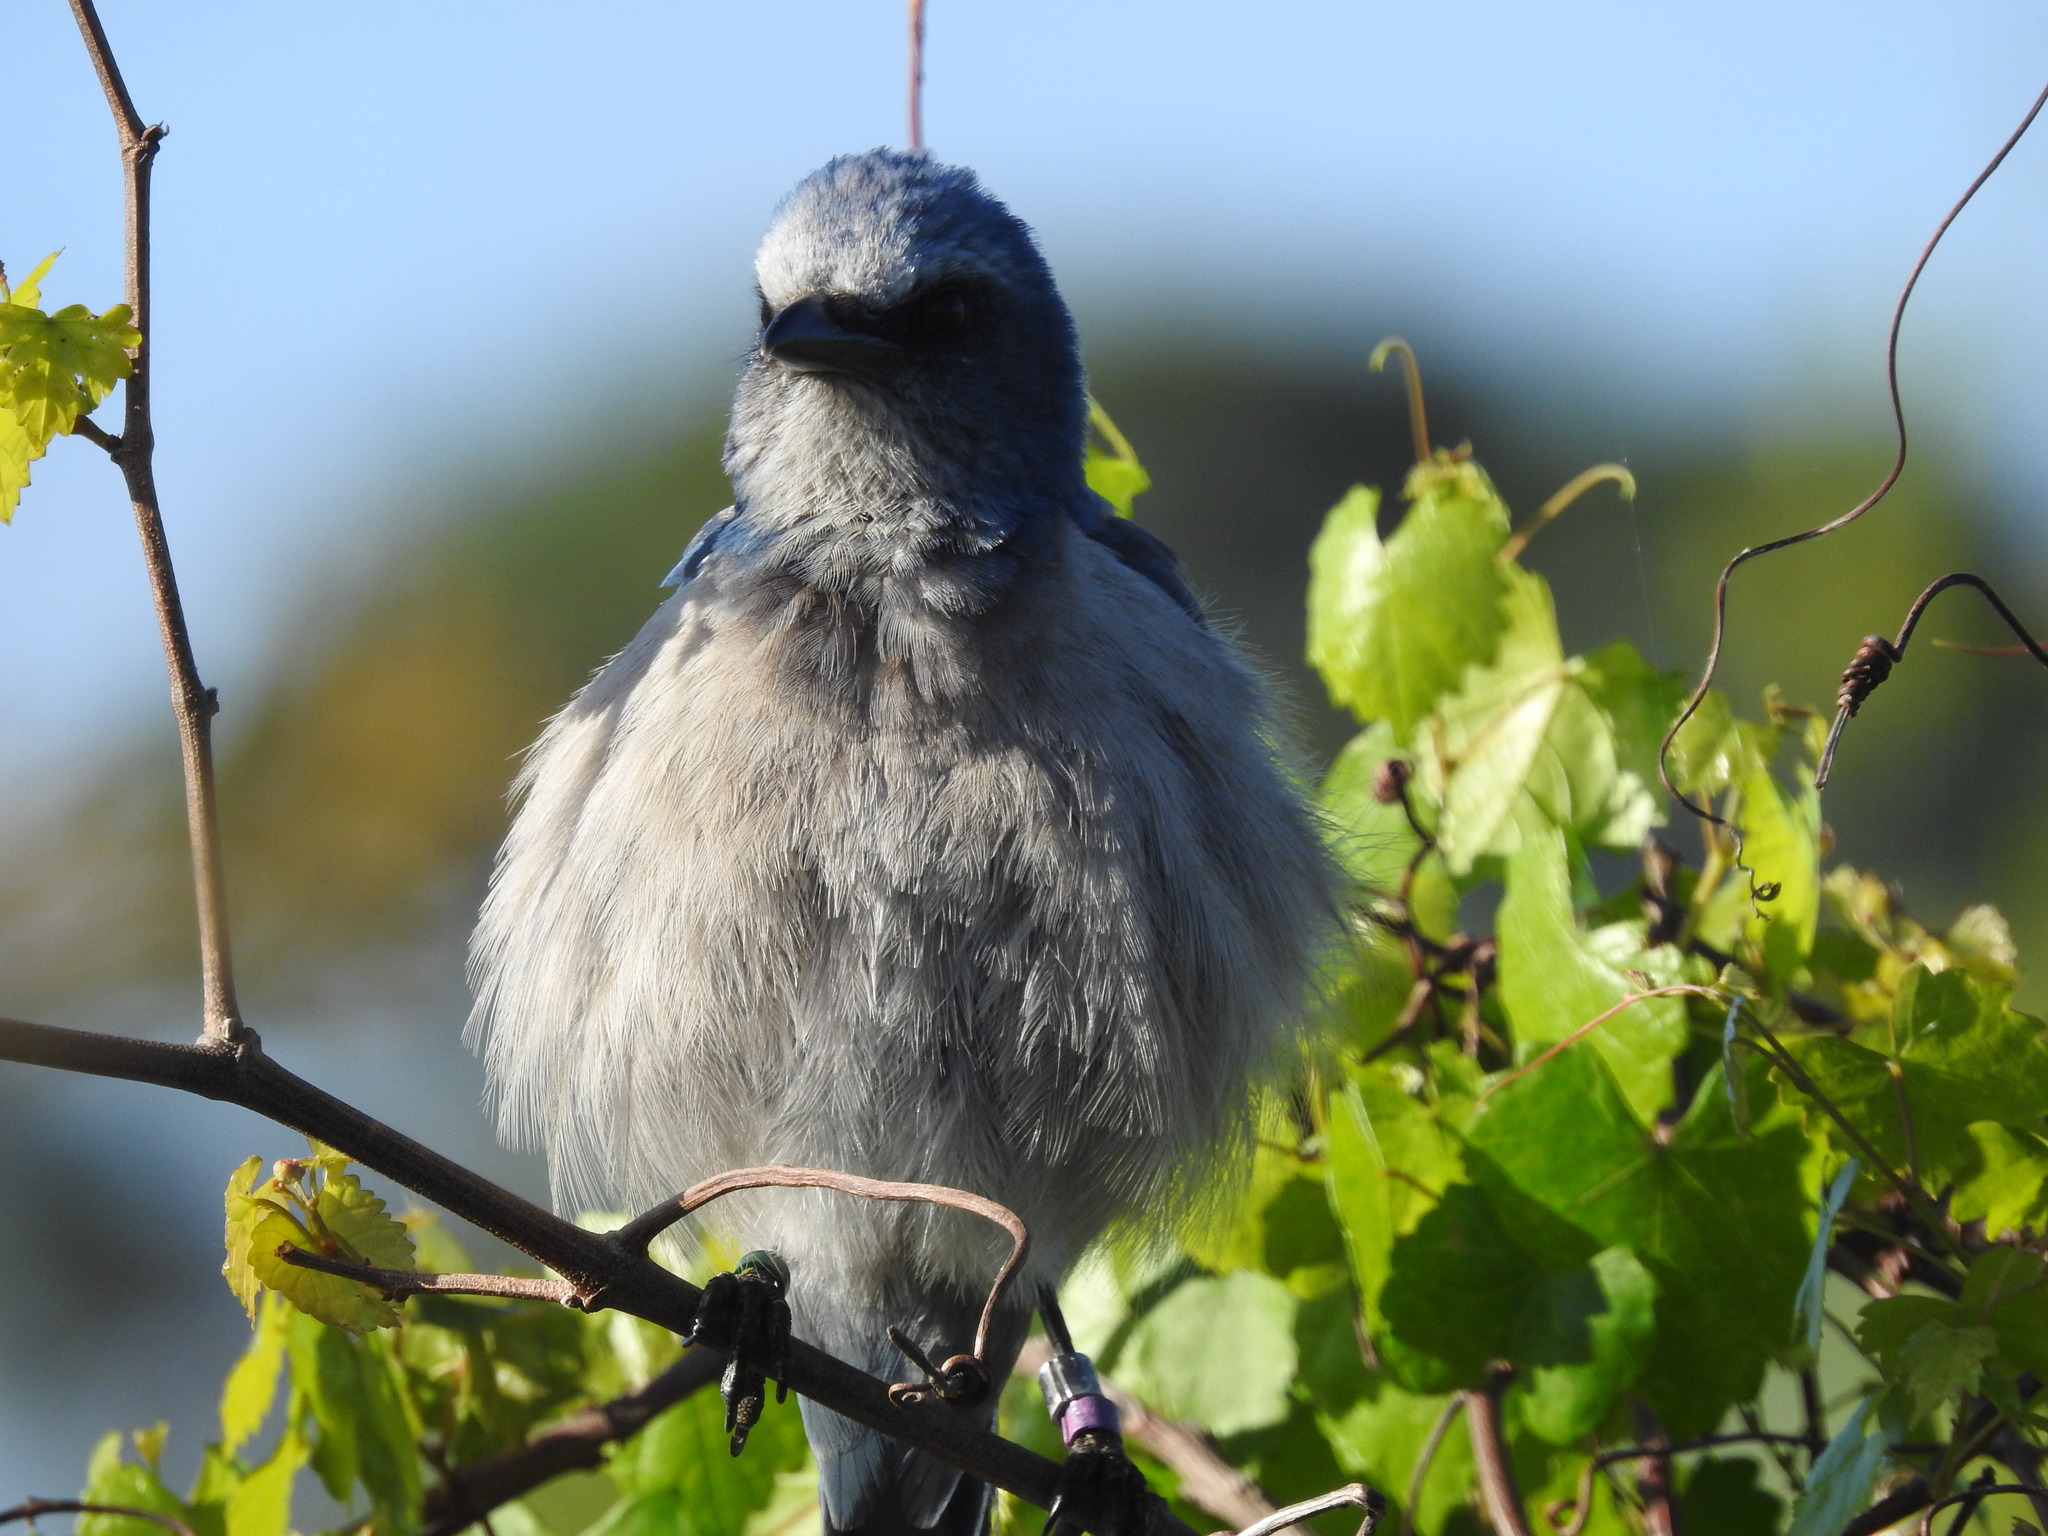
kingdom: Animalia
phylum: Chordata
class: Aves
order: Passeriformes
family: Corvidae
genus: Aphelocoma
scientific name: Aphelocoma coerulescens
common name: Florida scrub jay
